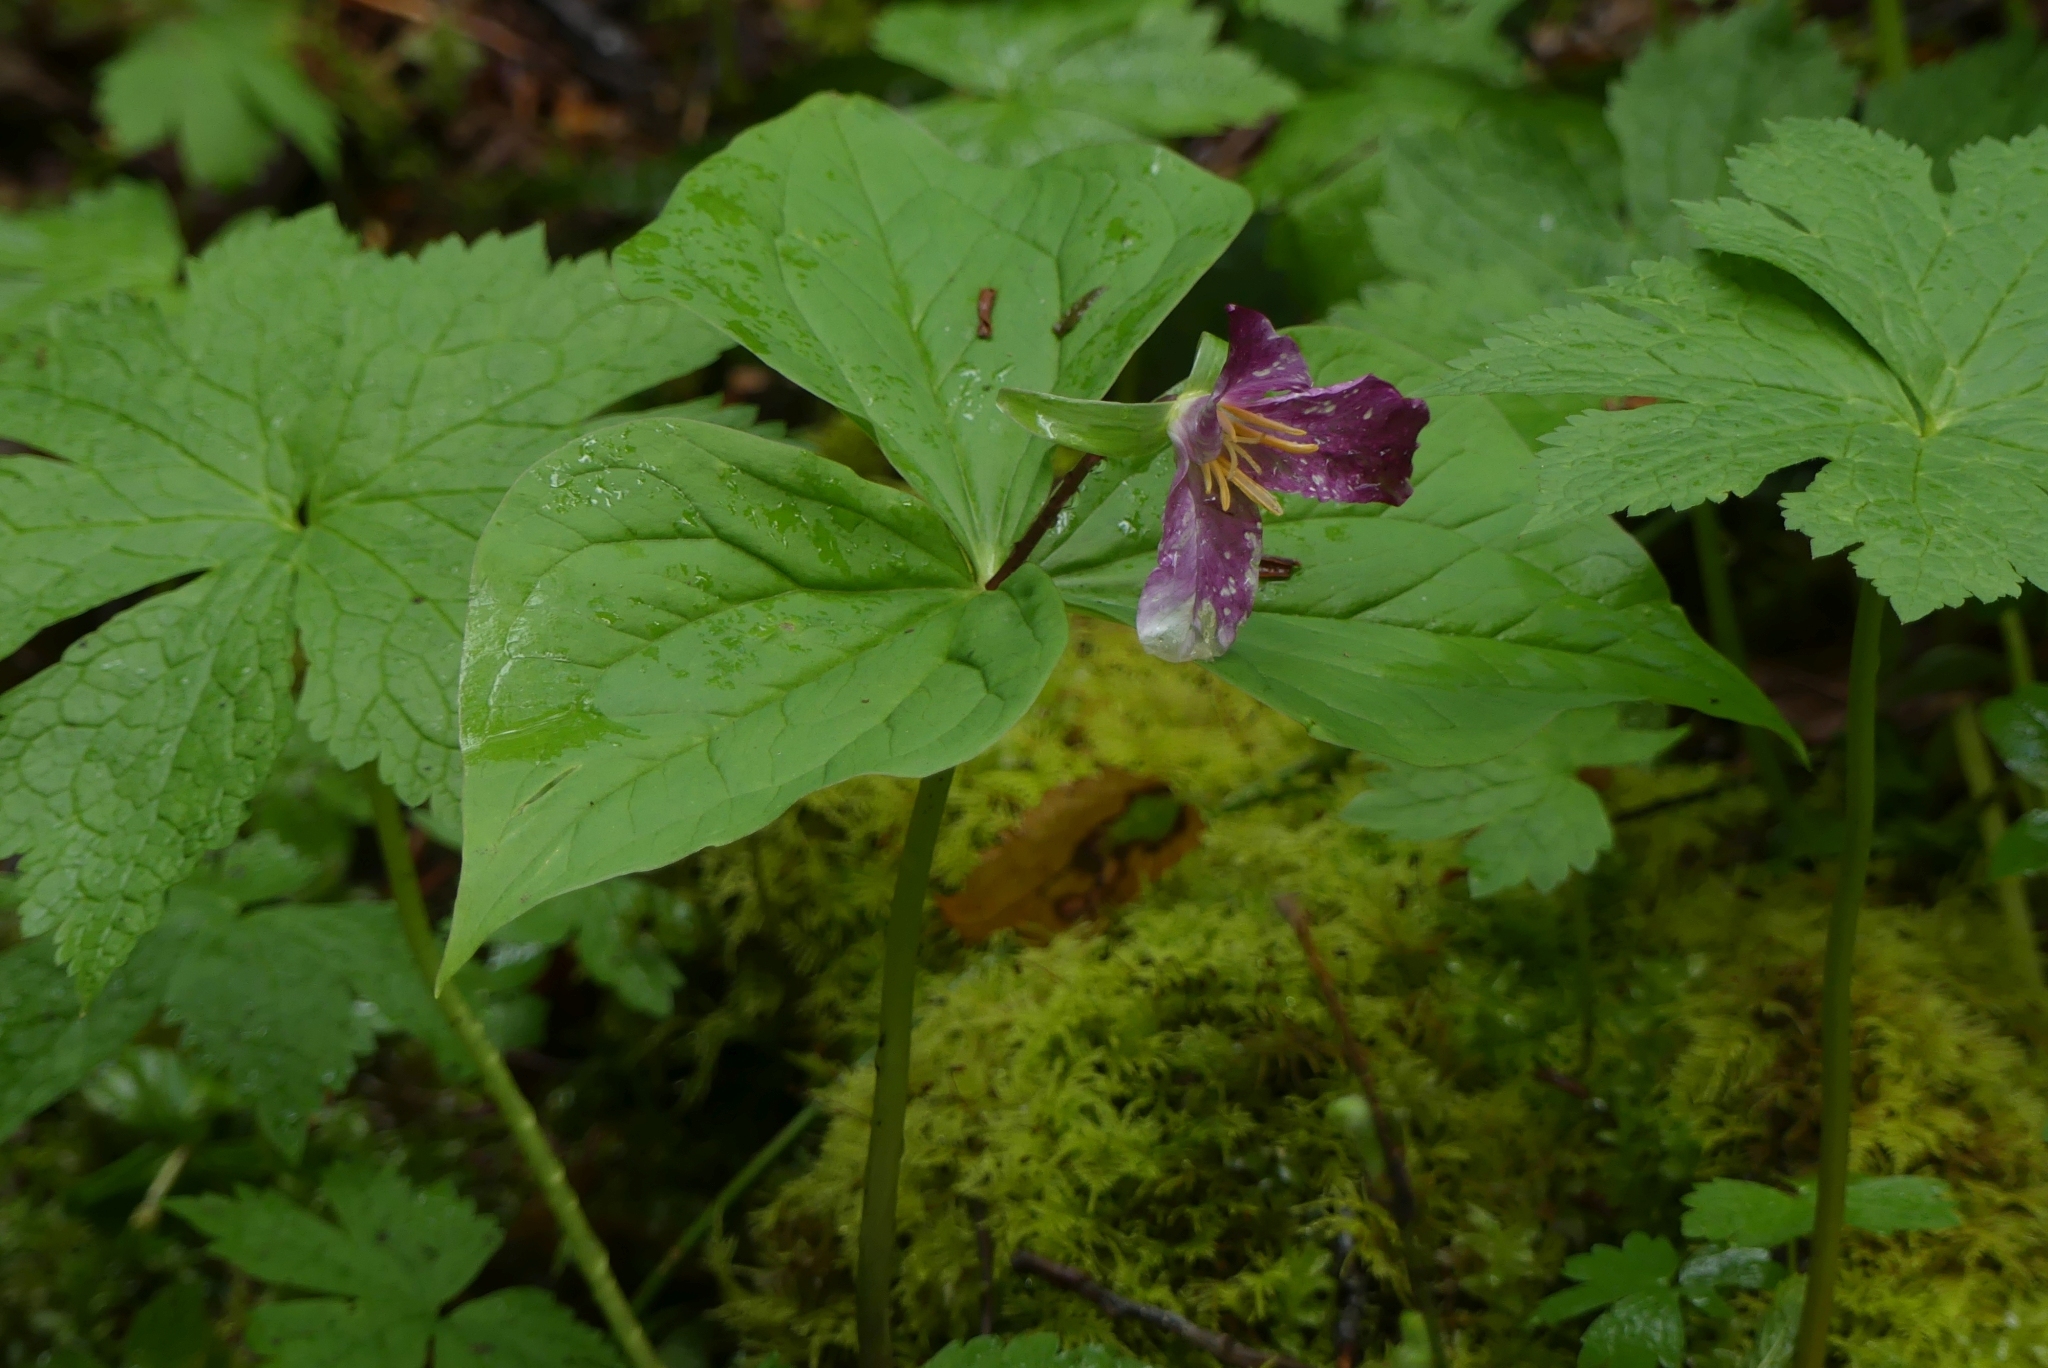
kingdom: Plantae
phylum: Tracheophyta
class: Liliopsida
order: Liliales
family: Melanthiaceae
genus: Trillium
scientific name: Trillium ovatum
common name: Pacific trillium
